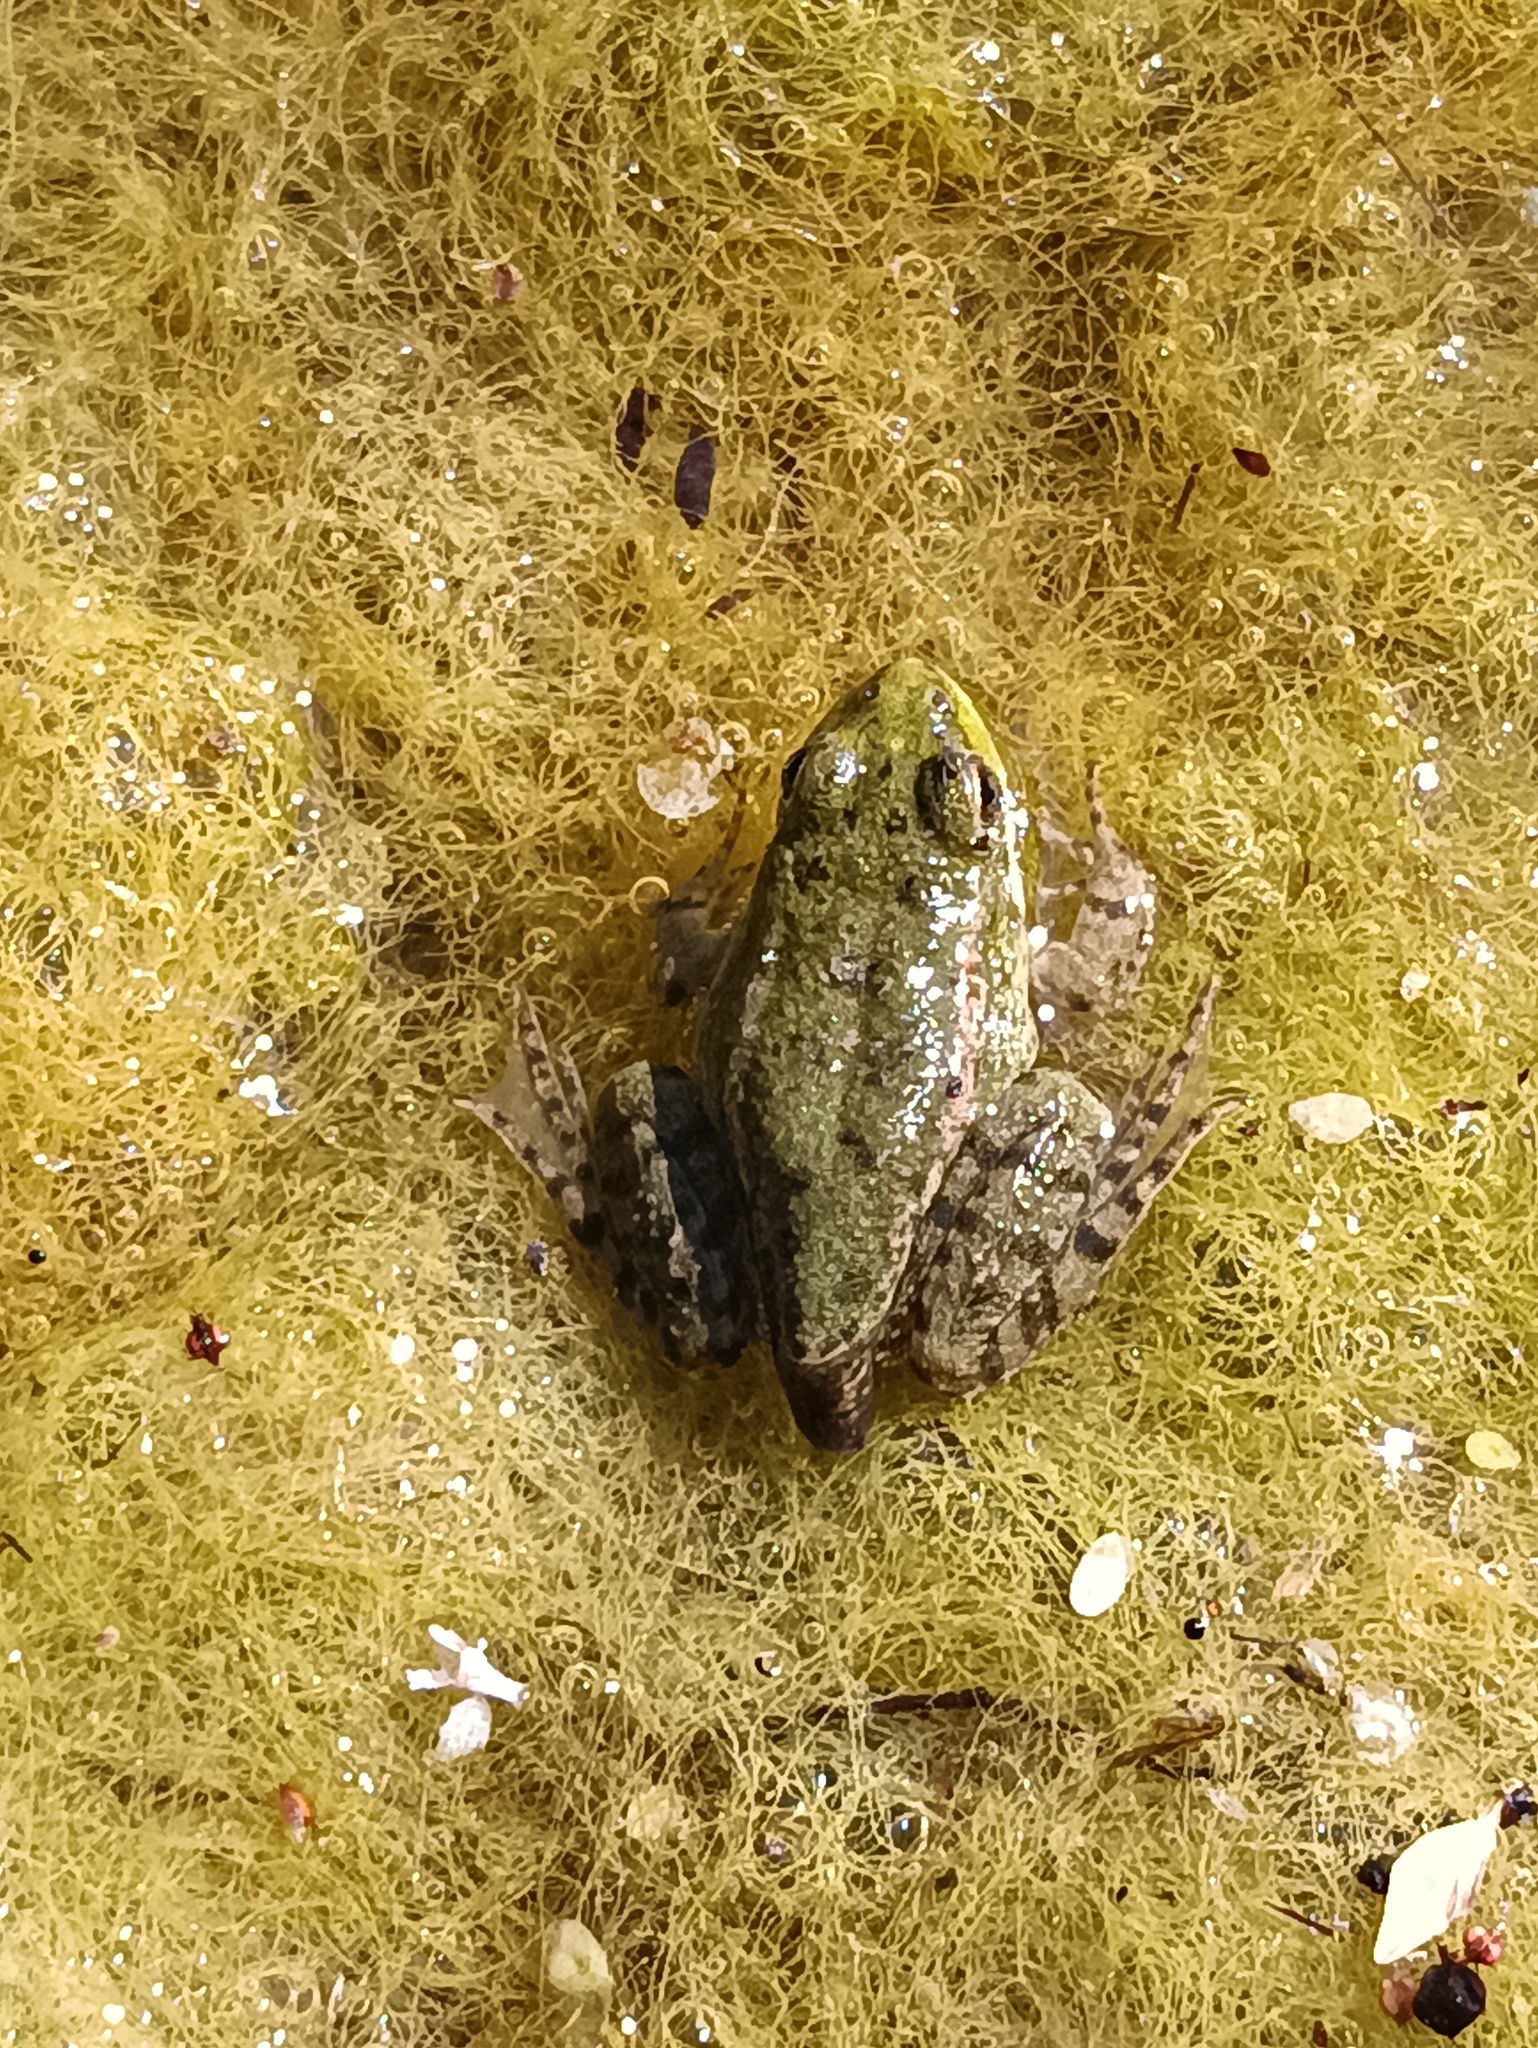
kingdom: Animalia
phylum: Chordata
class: Amphibia
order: Anura
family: Ranidae
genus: Pelophylax
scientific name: Pelophylax ridibundus
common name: Marsh frog
